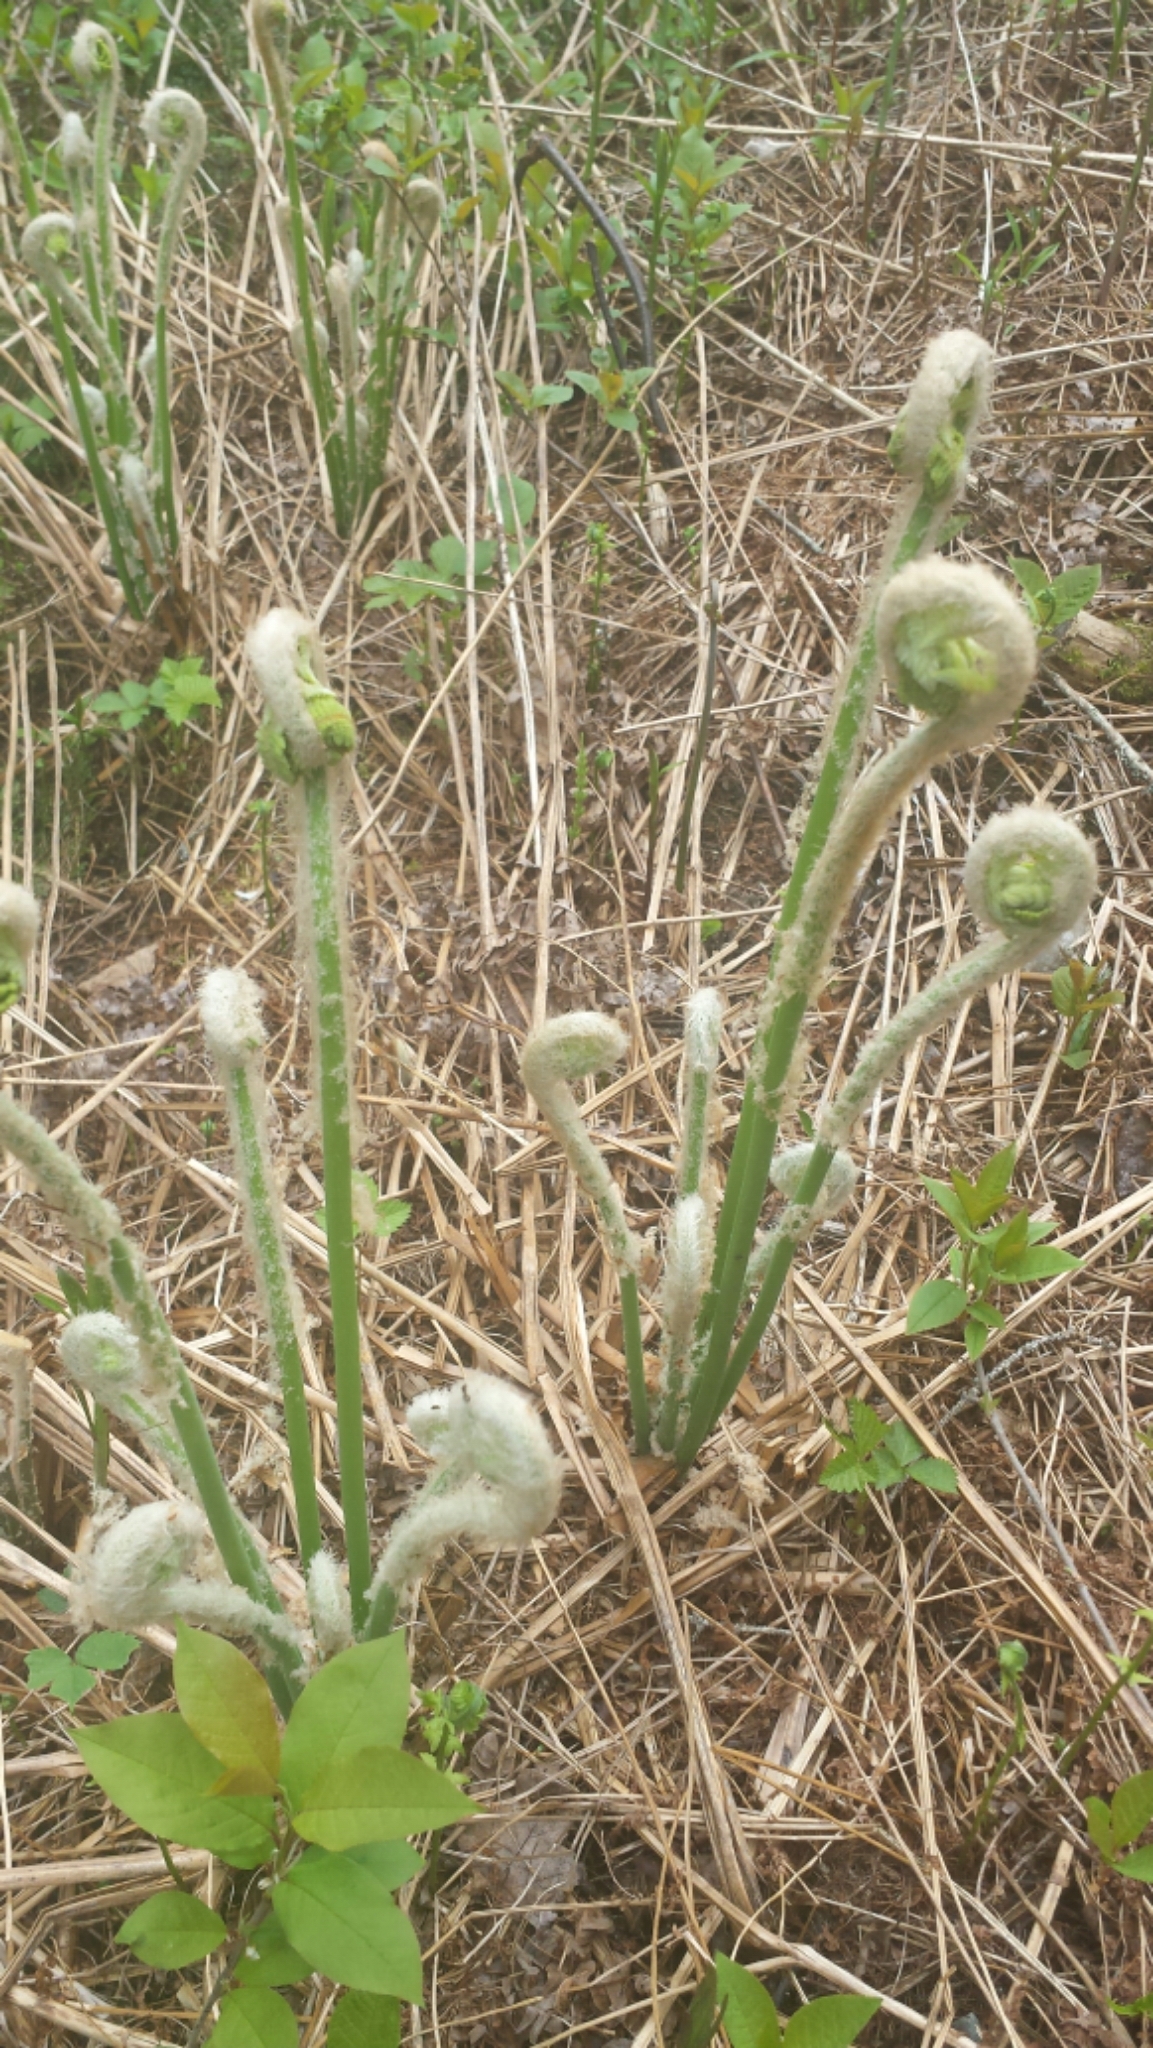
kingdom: Plantae
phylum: Tracheophyta
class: Polypodiopsida
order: Osmundales
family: Osmundaceae
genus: Osmundastrum
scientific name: Osmundastrum cinnamomeum
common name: Cinnamon fern
